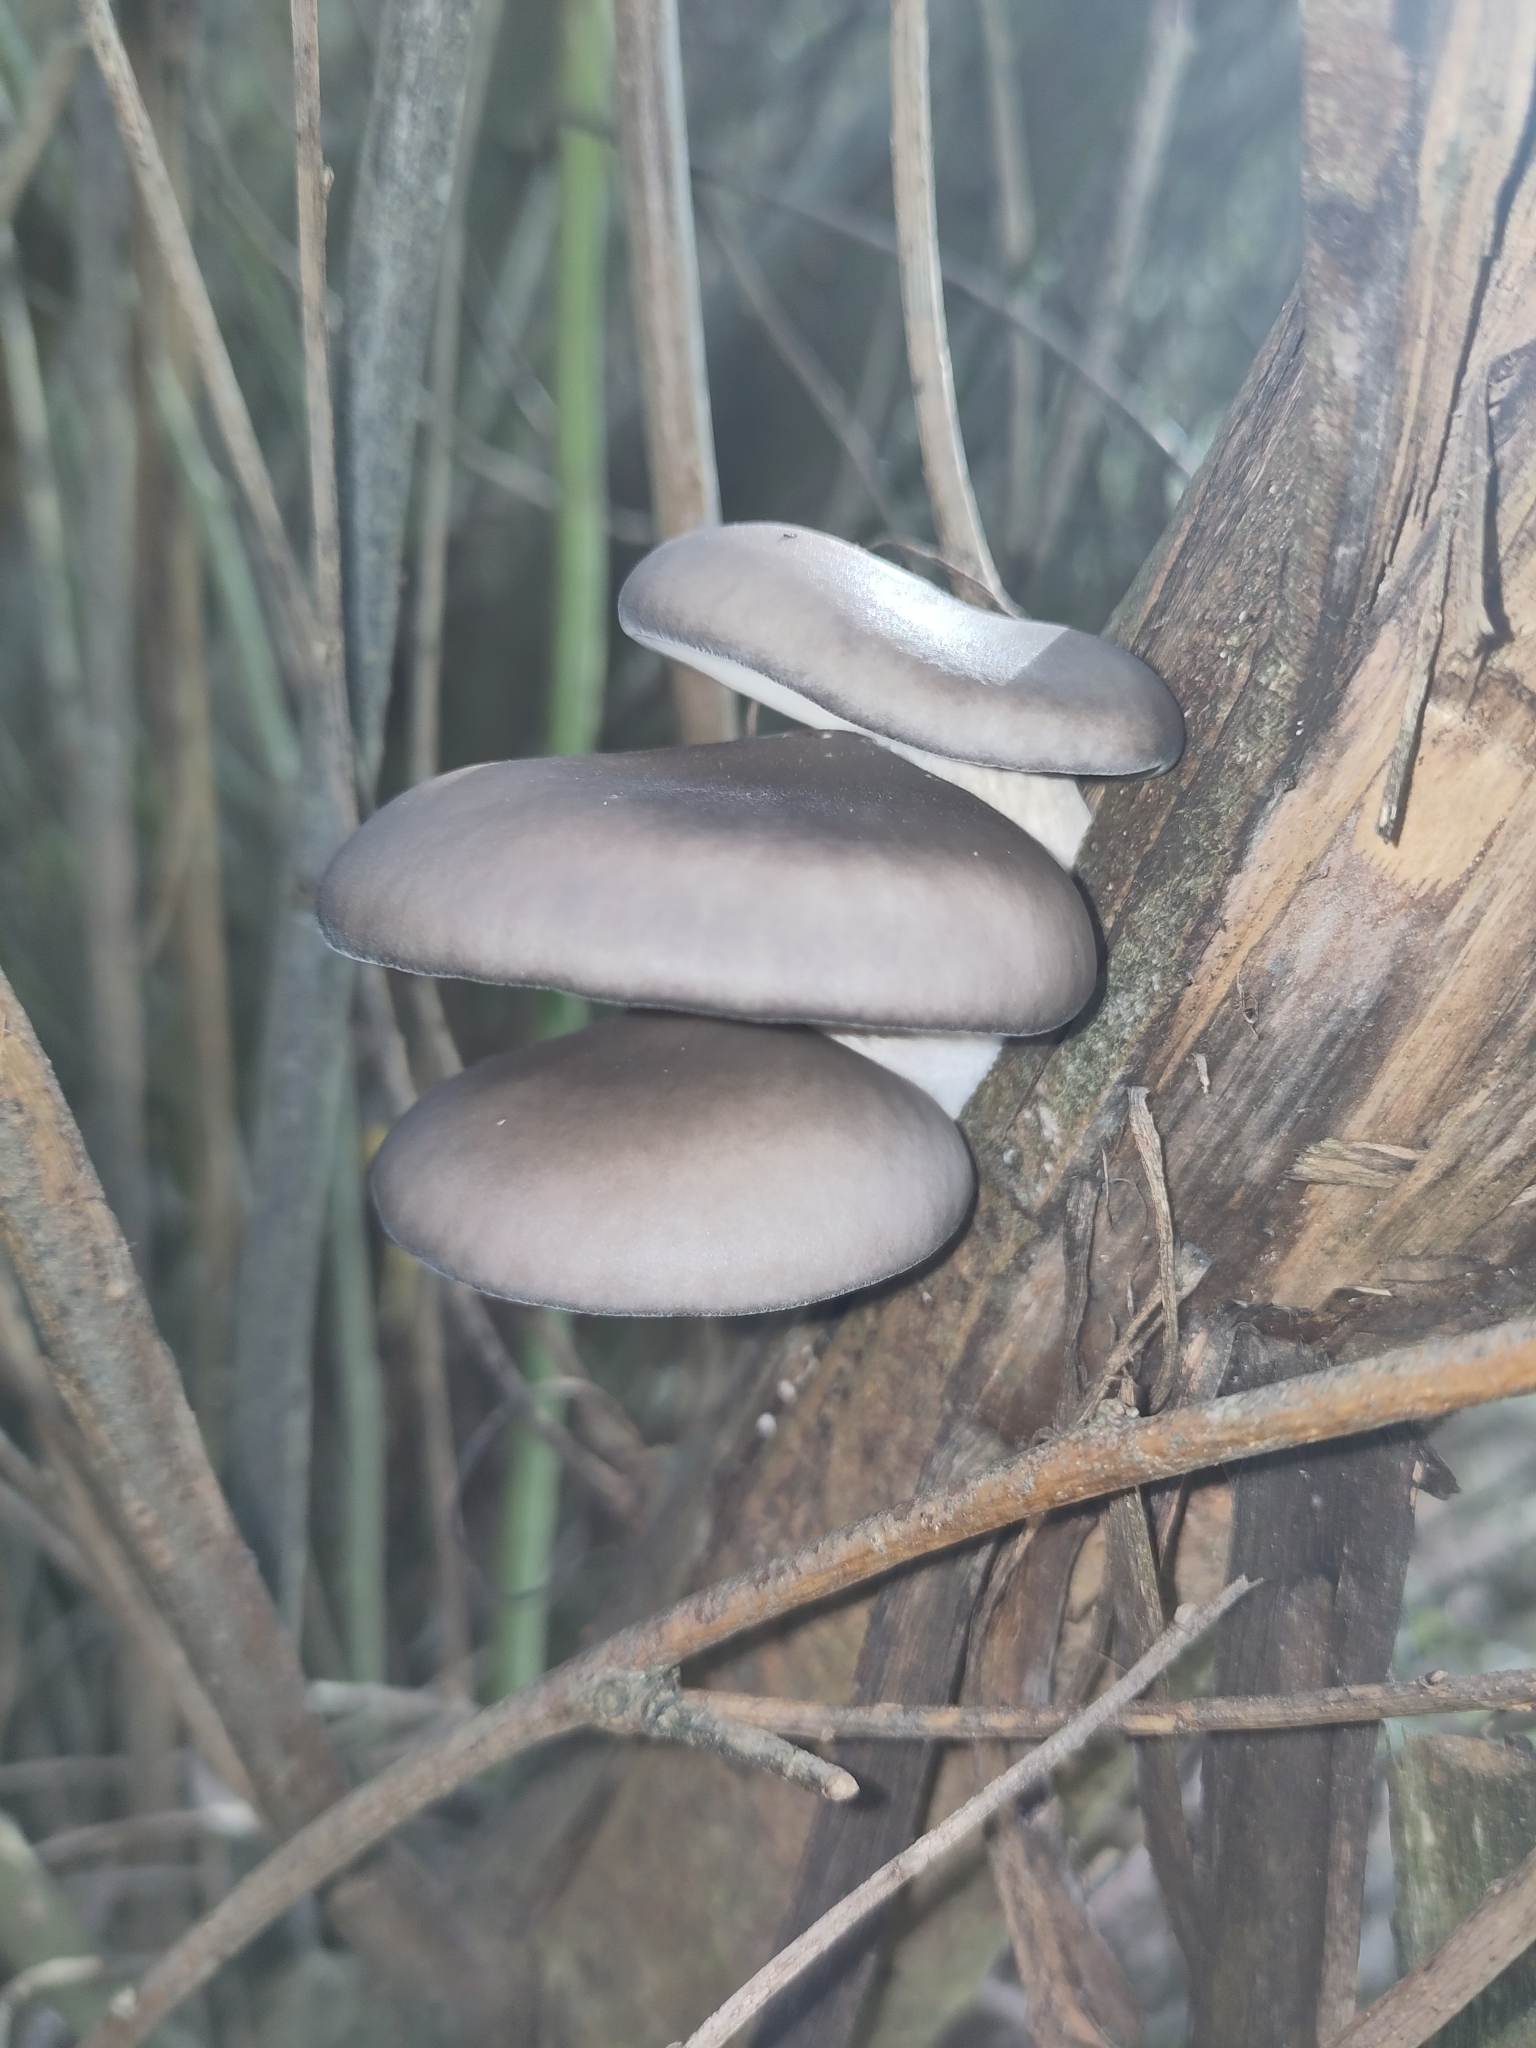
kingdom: Fungi
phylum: Basidiomycota
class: Agaricomycetes
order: Agaricales
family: Pleurotaceae
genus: Pleurotus
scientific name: Pleurotus ostreatus
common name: Oyster mushroom
